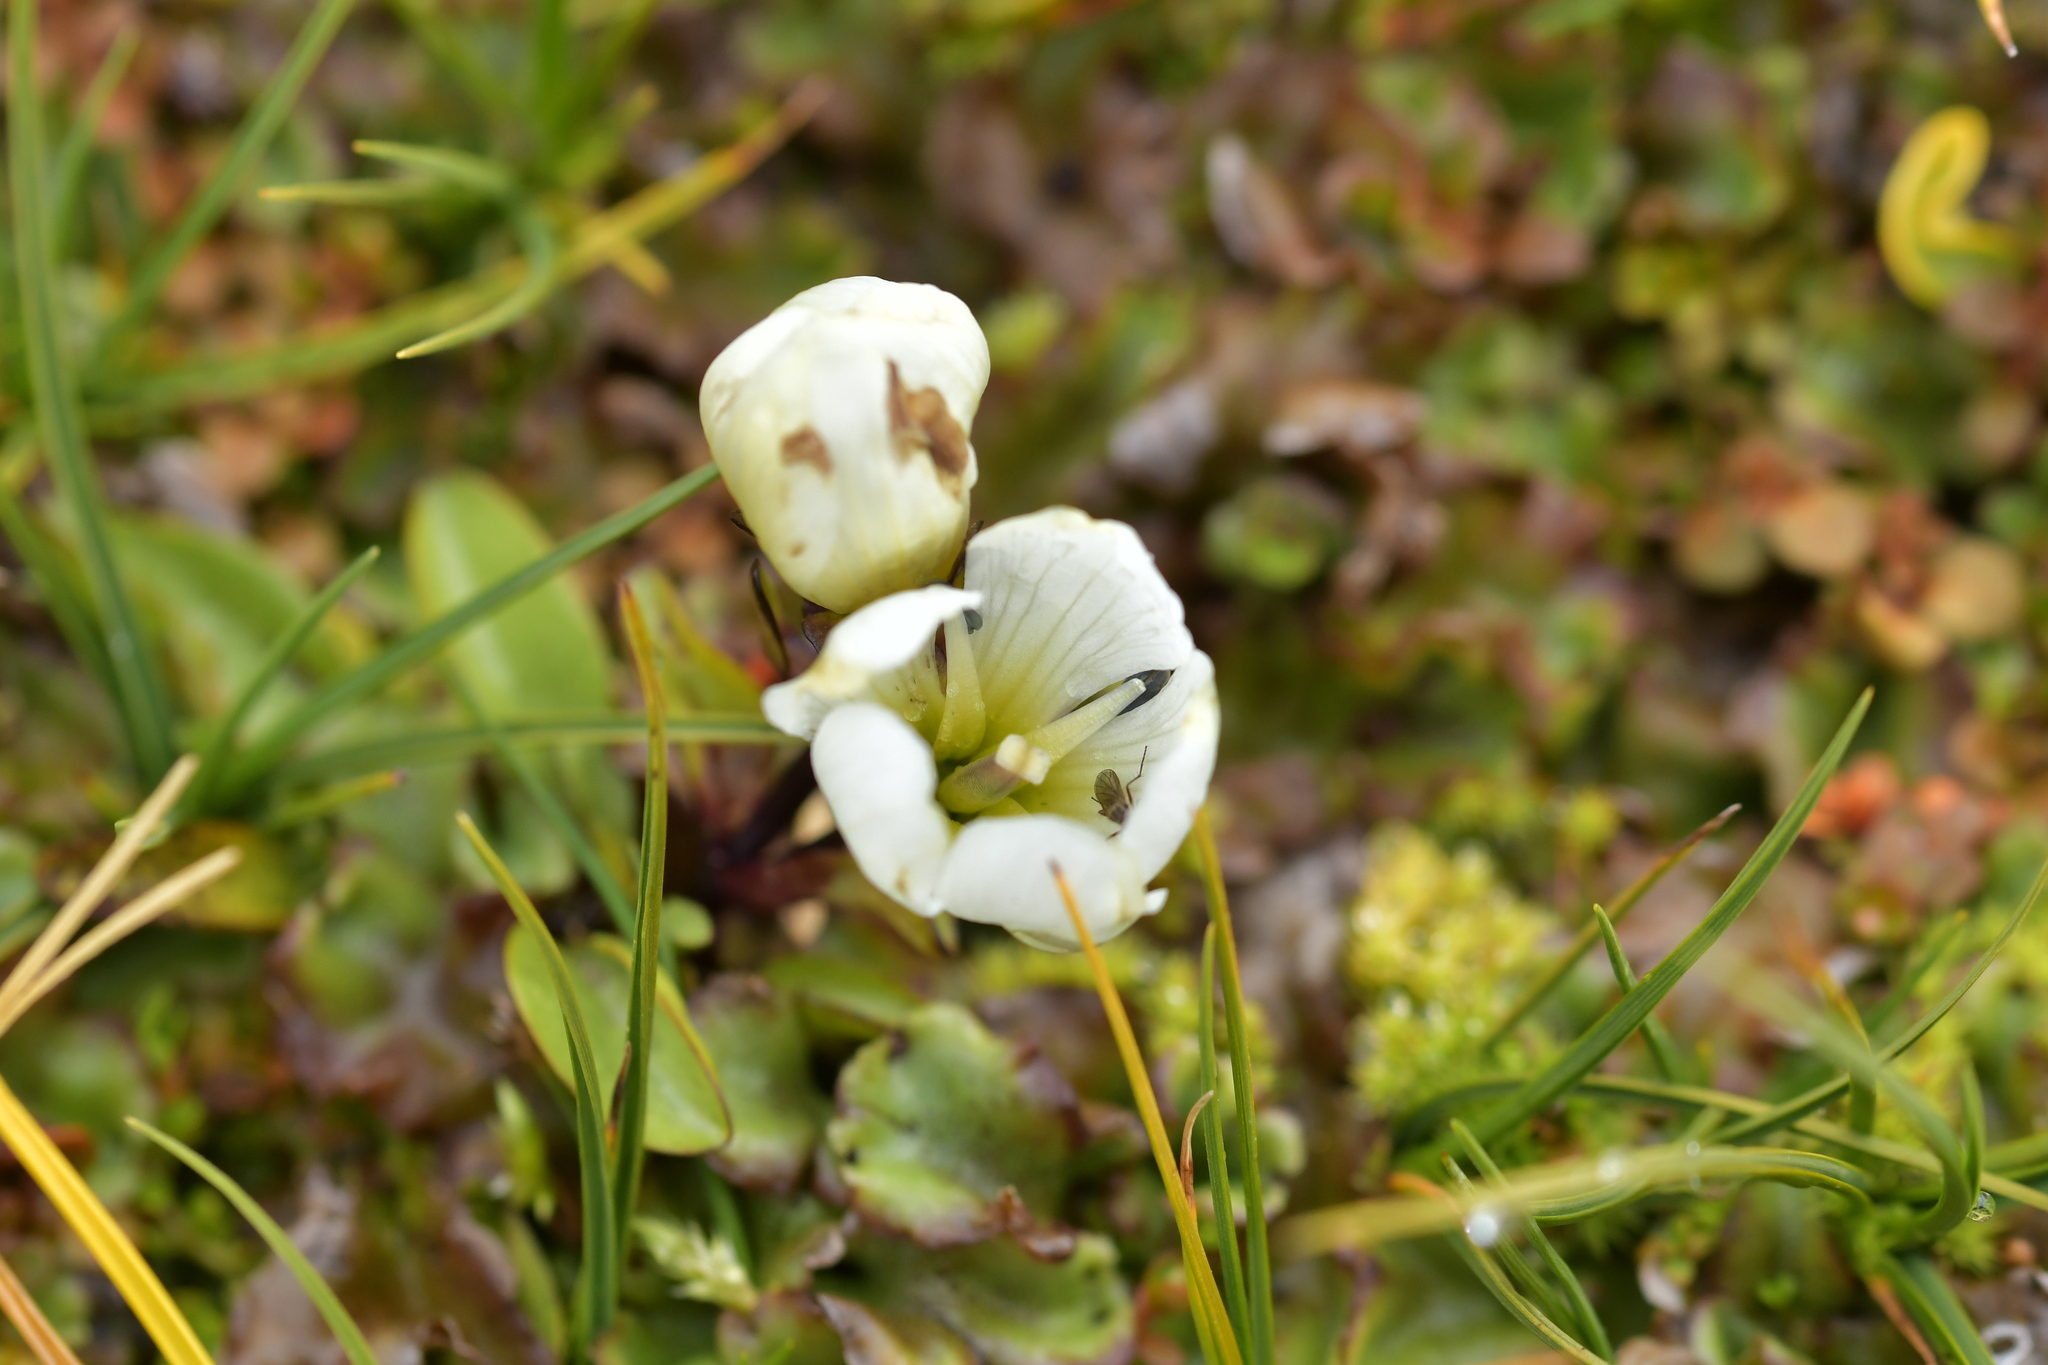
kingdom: Plantae
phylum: Tracheophyta
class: Magnoliopsida
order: Gentianales
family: Gentianaceae
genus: Gentianella
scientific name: Gentianella amabilis
